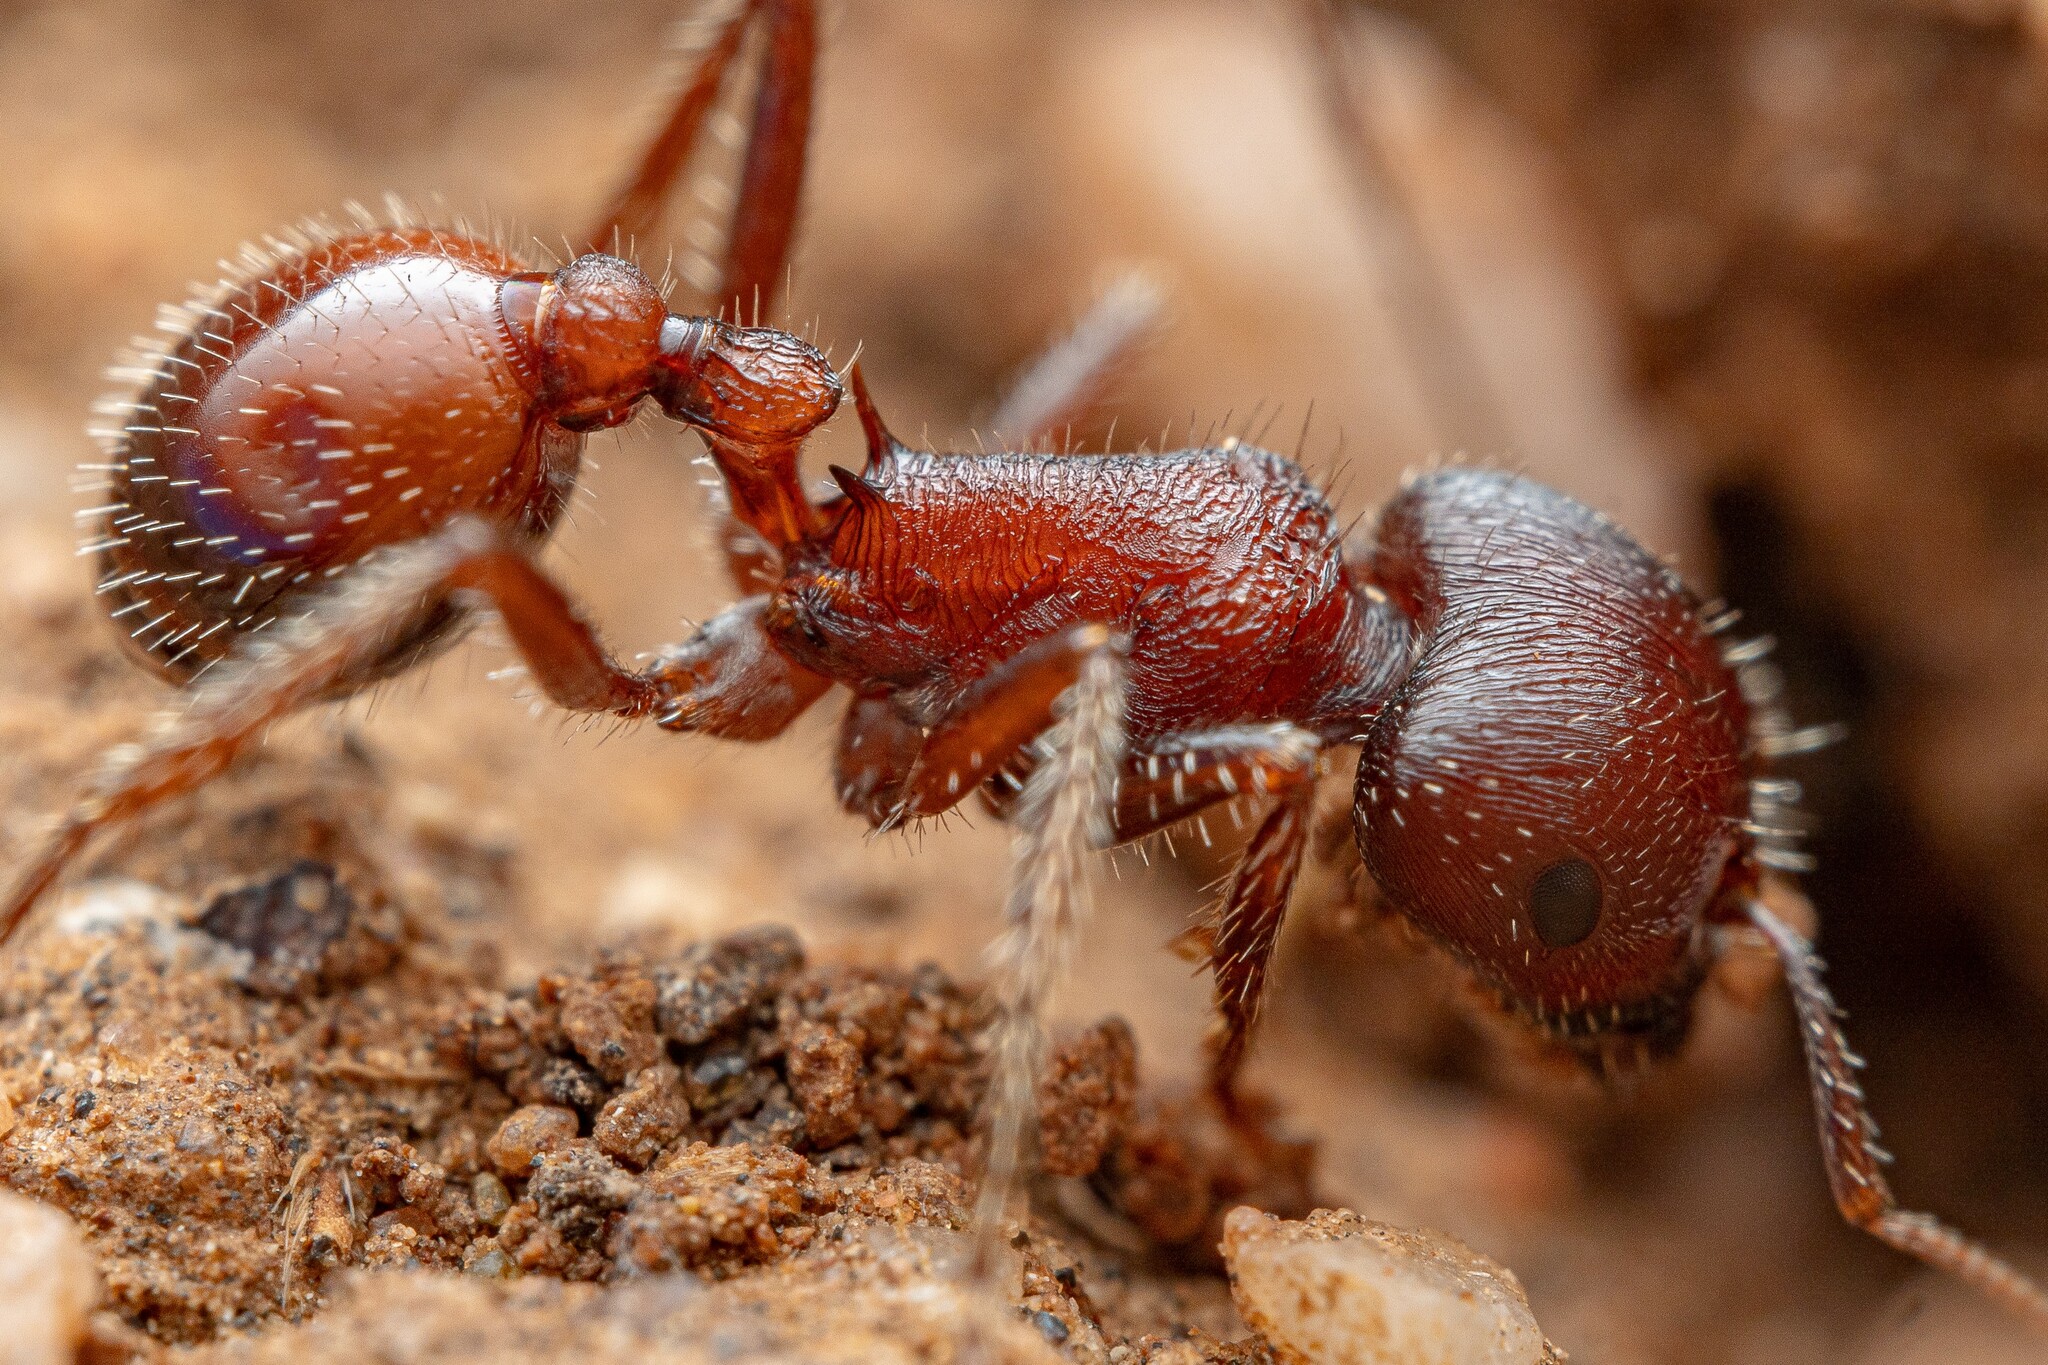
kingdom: Animalia
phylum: Arthropoda
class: Insecta
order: Hymenoptera
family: Formicidae
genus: Pogonomyrmex
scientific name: Pogonomyrmex rugosus
